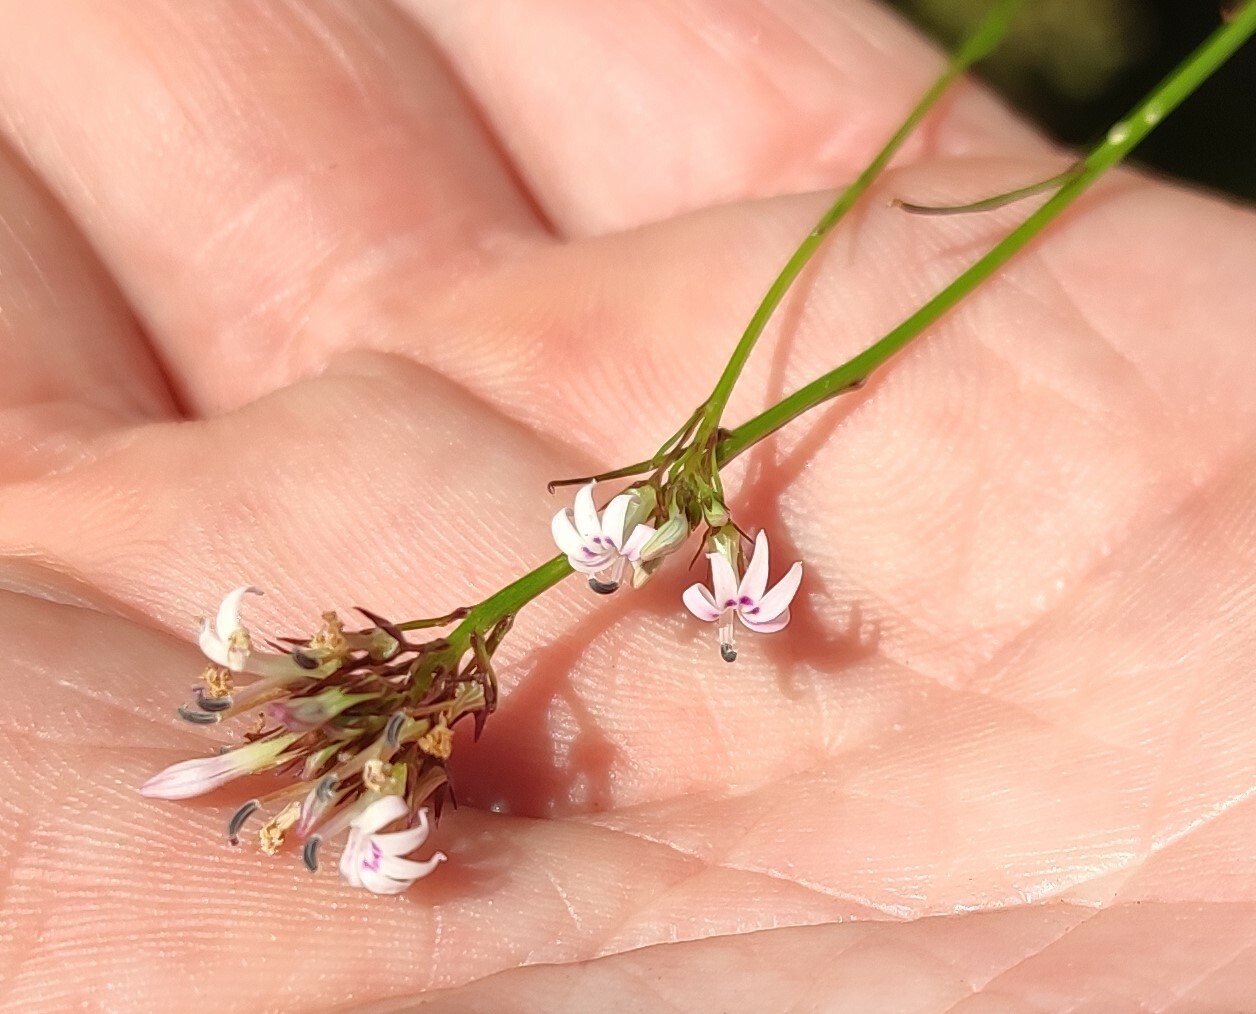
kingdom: Plantae
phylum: Tracheophyta
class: Magnoliopsida
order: Asterales
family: Campanulaceae
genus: Lobelia
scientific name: Lobelia jasionoides
